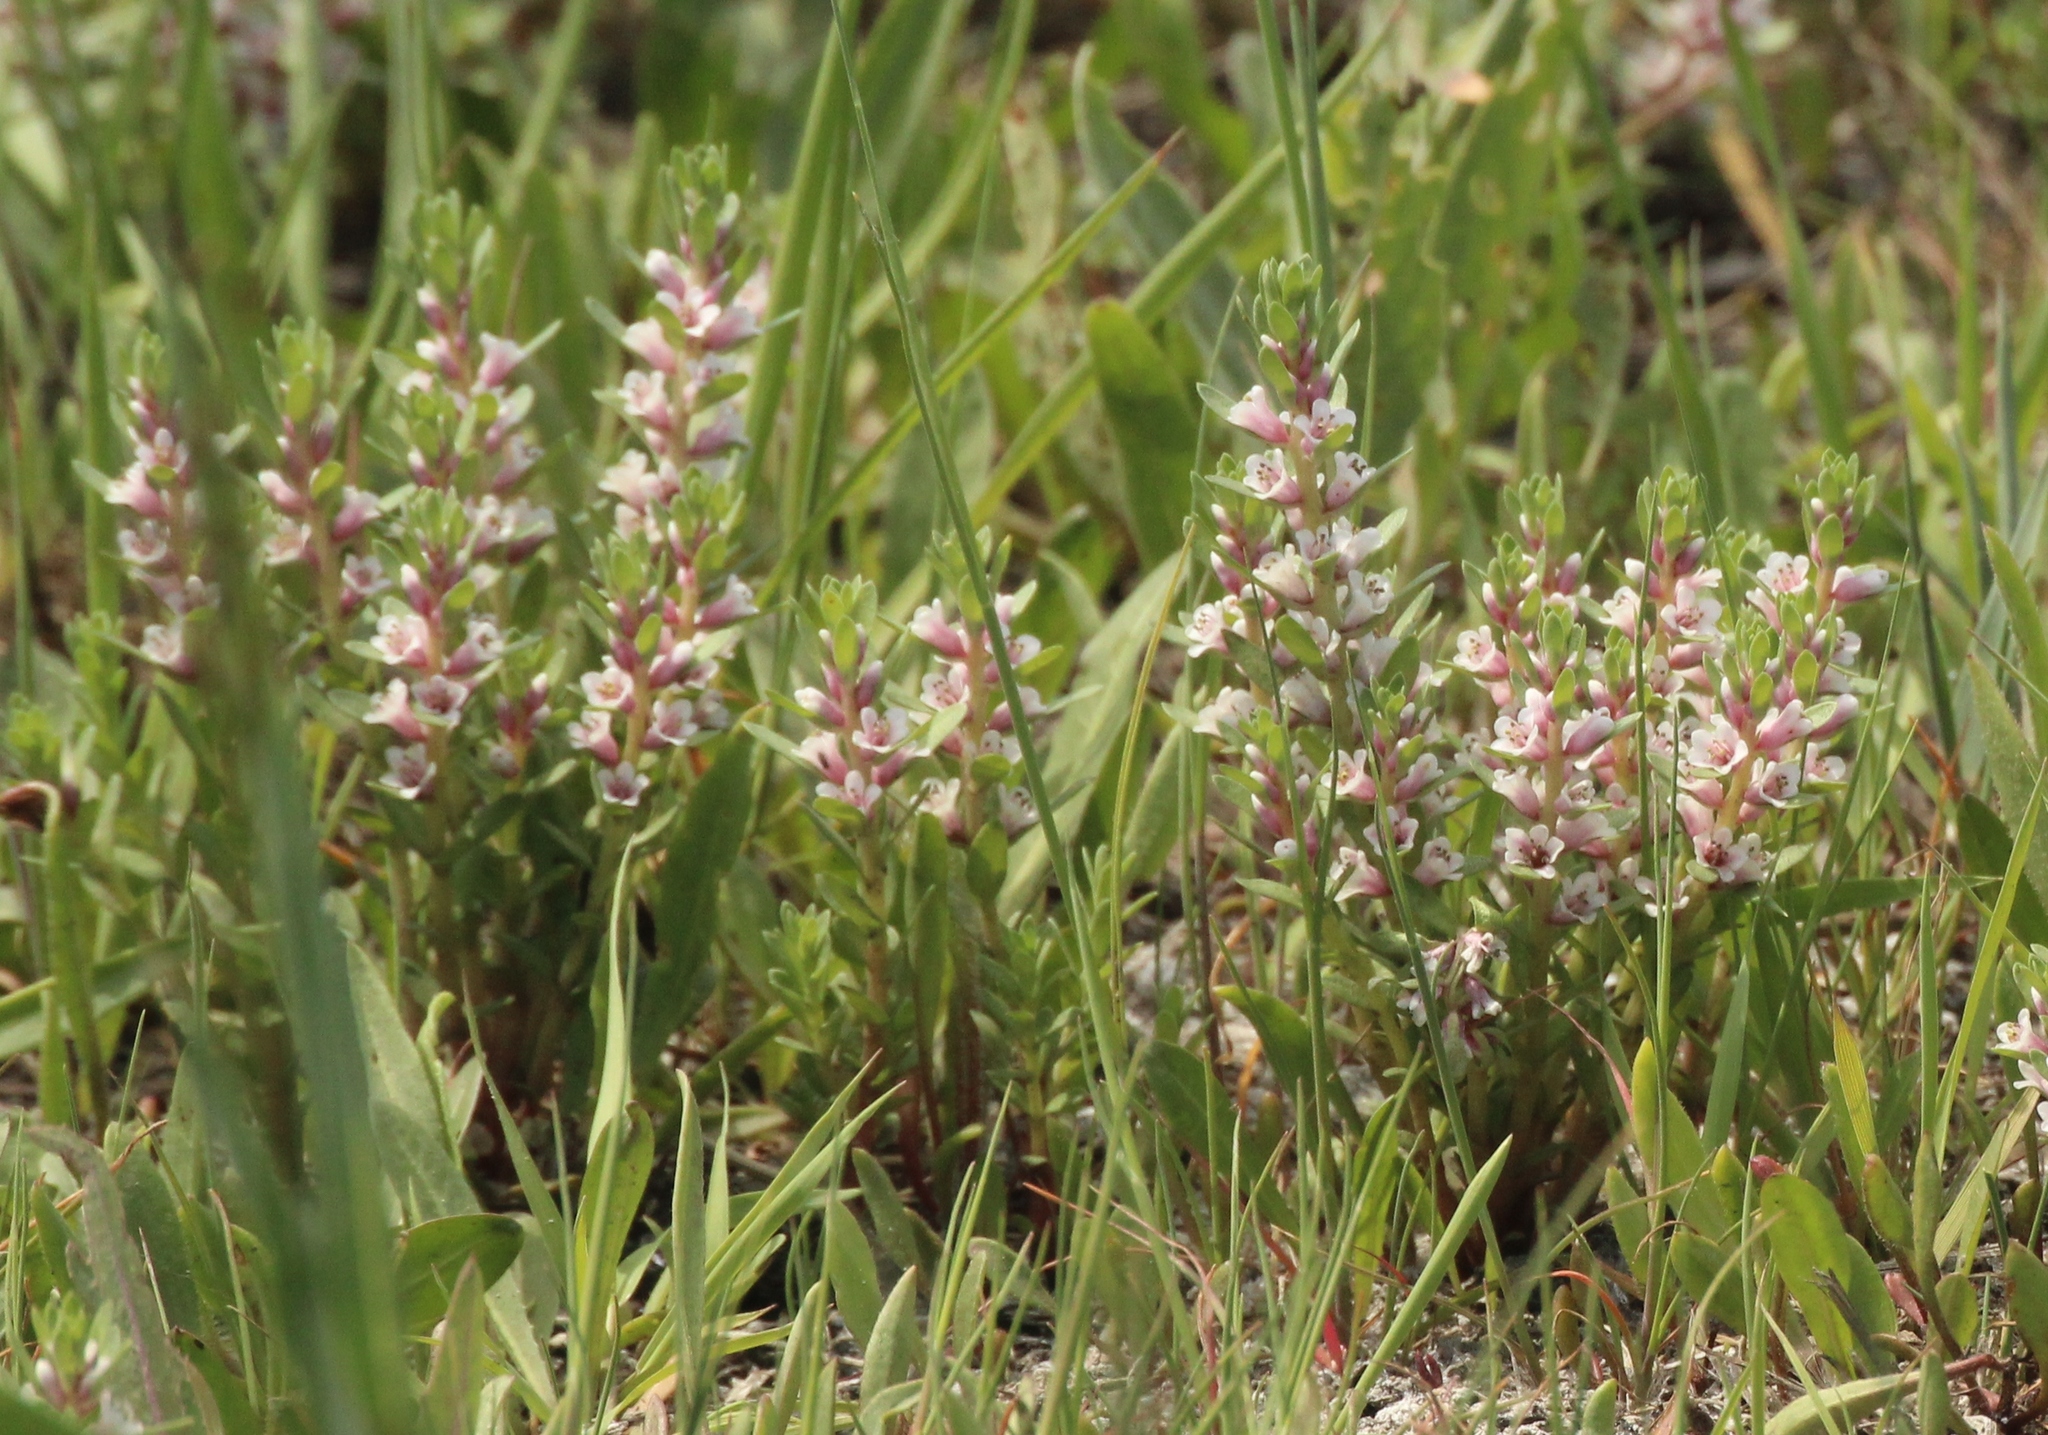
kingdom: Plantae
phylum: Tracheophyta
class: Magnoliopsida
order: Ericales
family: Primulaceae
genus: Lysimachia
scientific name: Lysimachia maritima
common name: Sea milkwort
